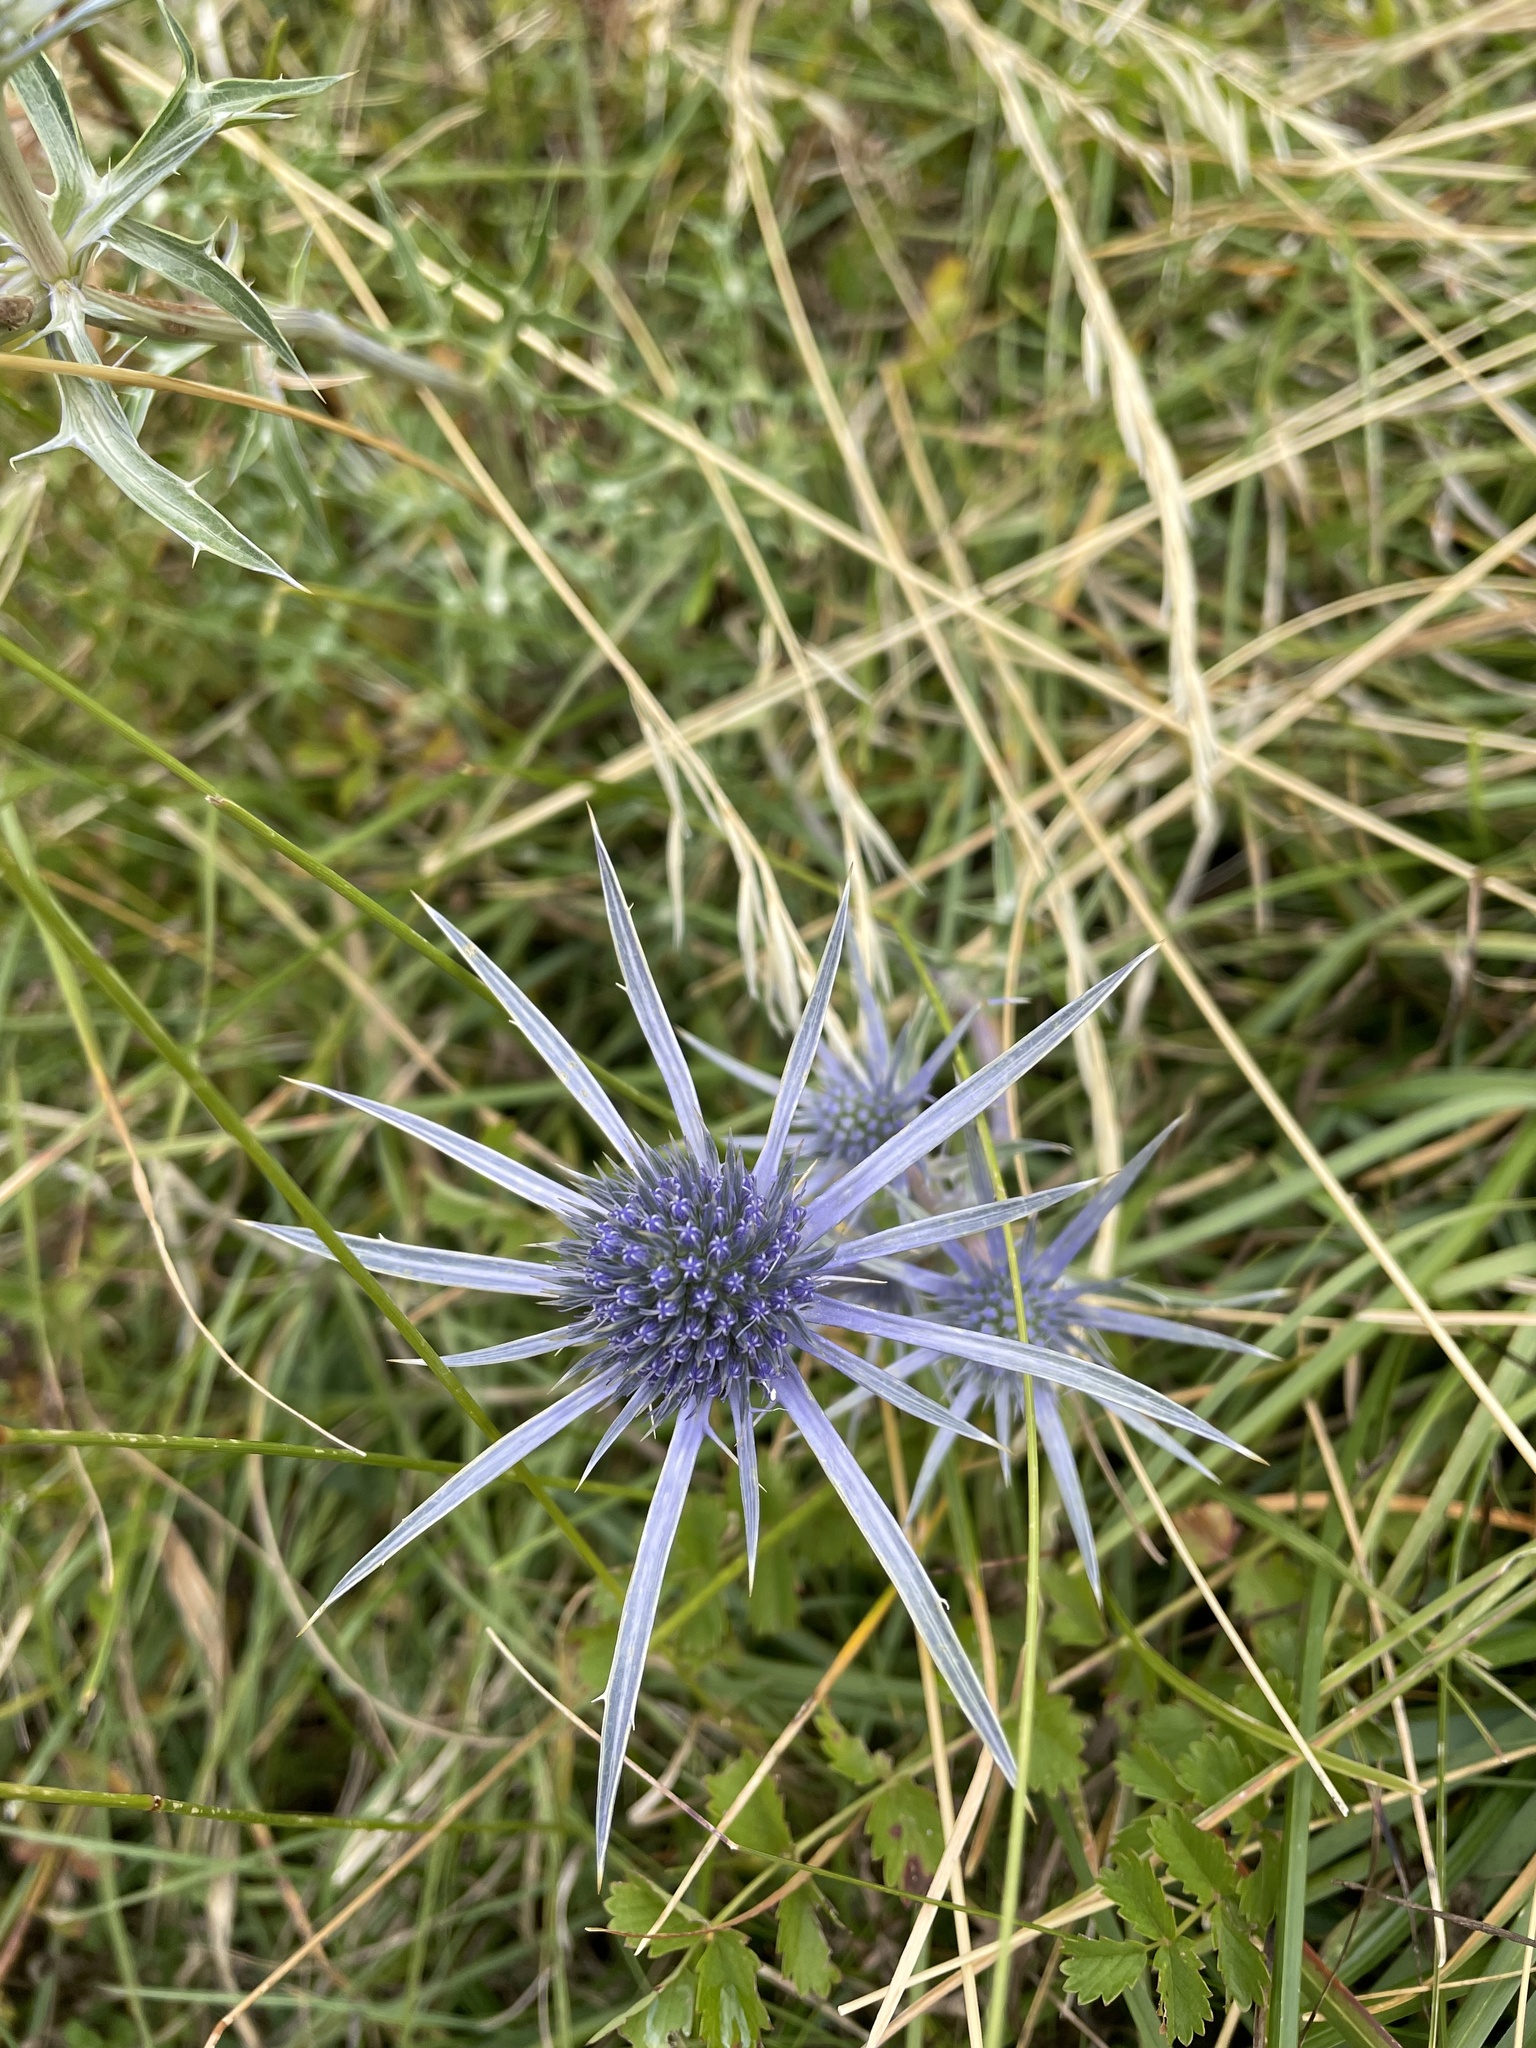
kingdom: Plantae
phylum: Tracheophyta
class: Magnoliopsida
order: Apiales
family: Apiaceae
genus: Eryngium
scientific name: Eryngium bourgatii
